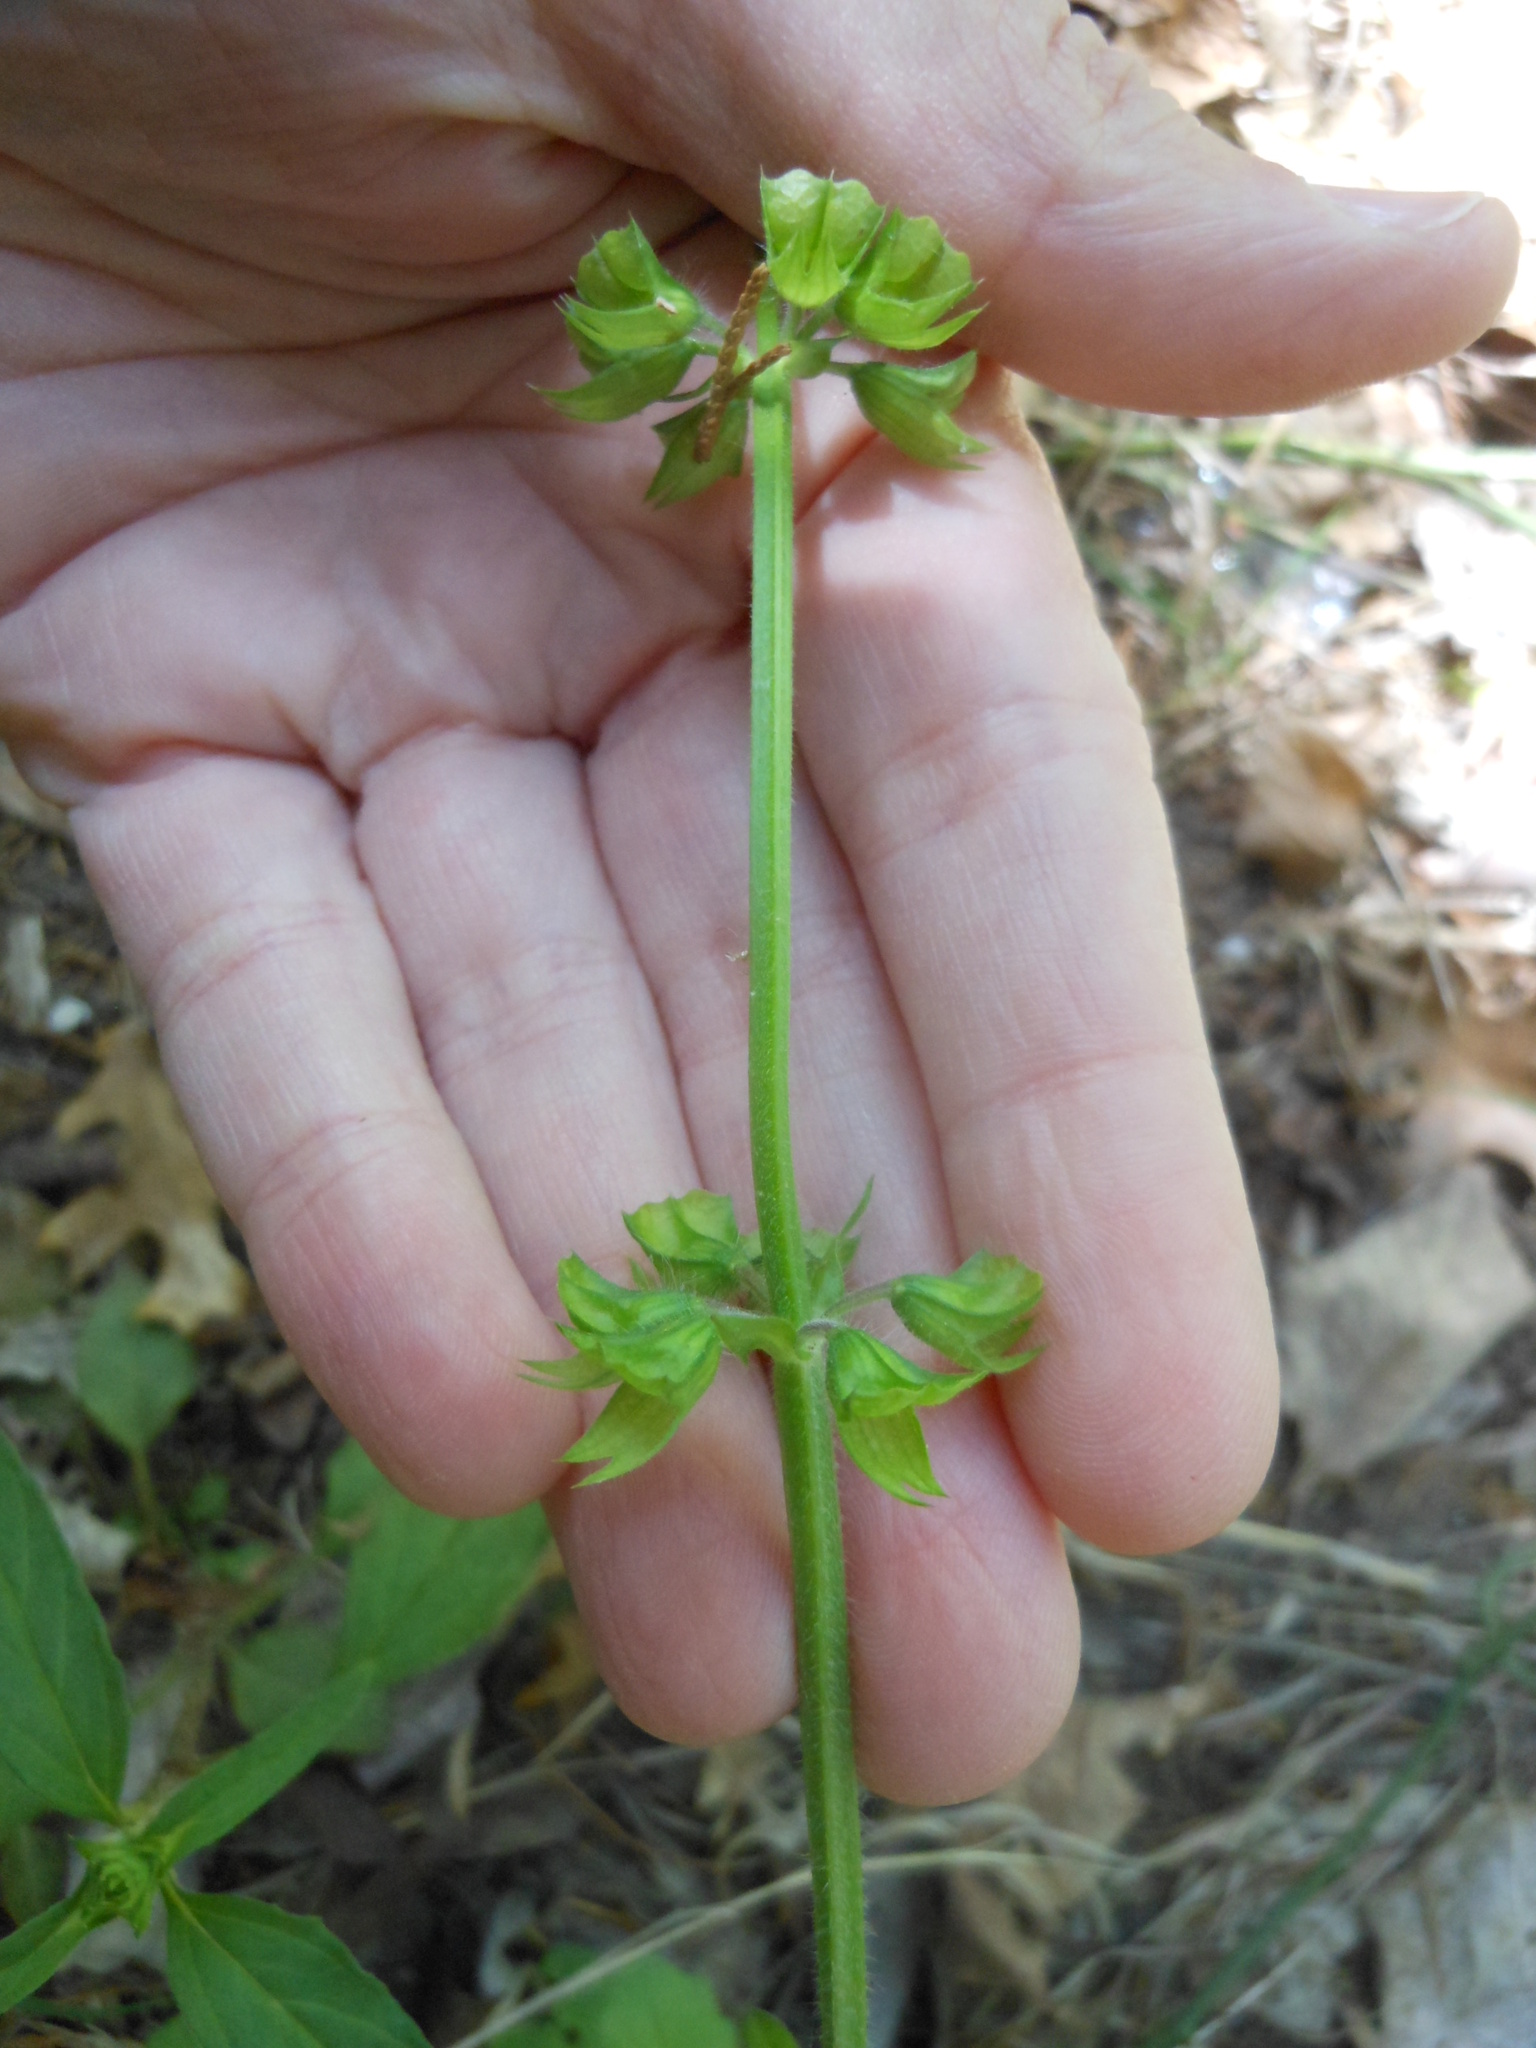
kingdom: Plantae
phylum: Tracheophyta
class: Magnoliopsida
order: Lamiales
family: Lamiaceae
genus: Salvia
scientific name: Salvia lyrata
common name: Cancerweed
